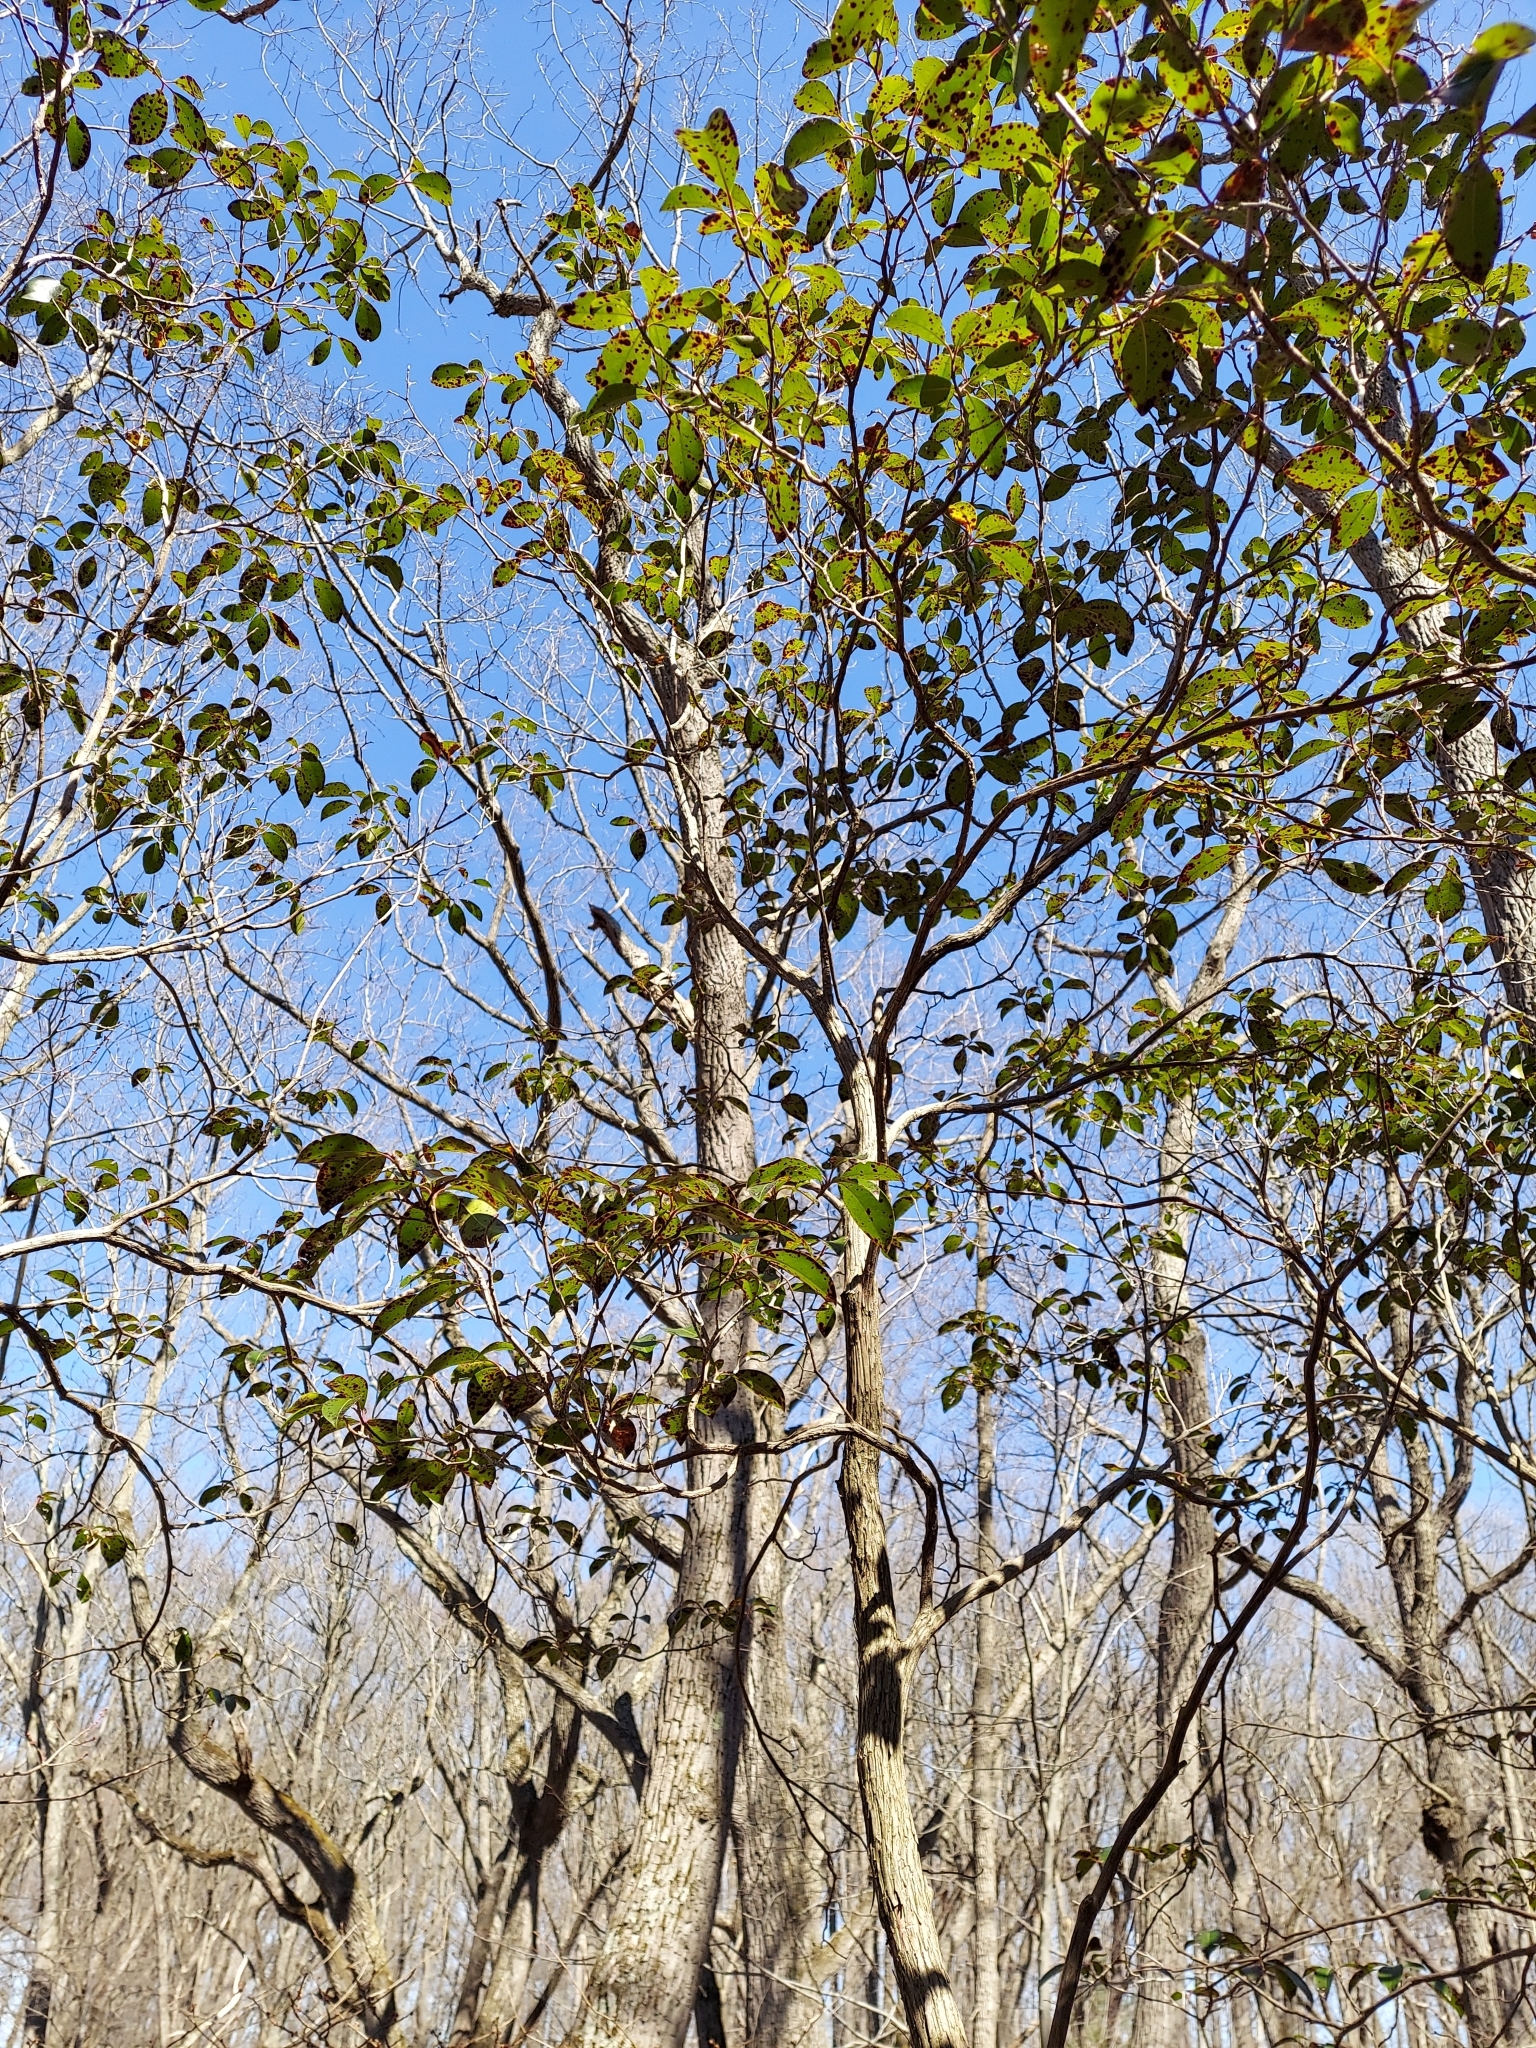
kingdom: Plantae
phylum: Tracheophyta
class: Magnoliopsida
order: Ericales
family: Ericaceae
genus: Kalmia
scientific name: Kalmia latifolia
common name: Mountain-laurel
